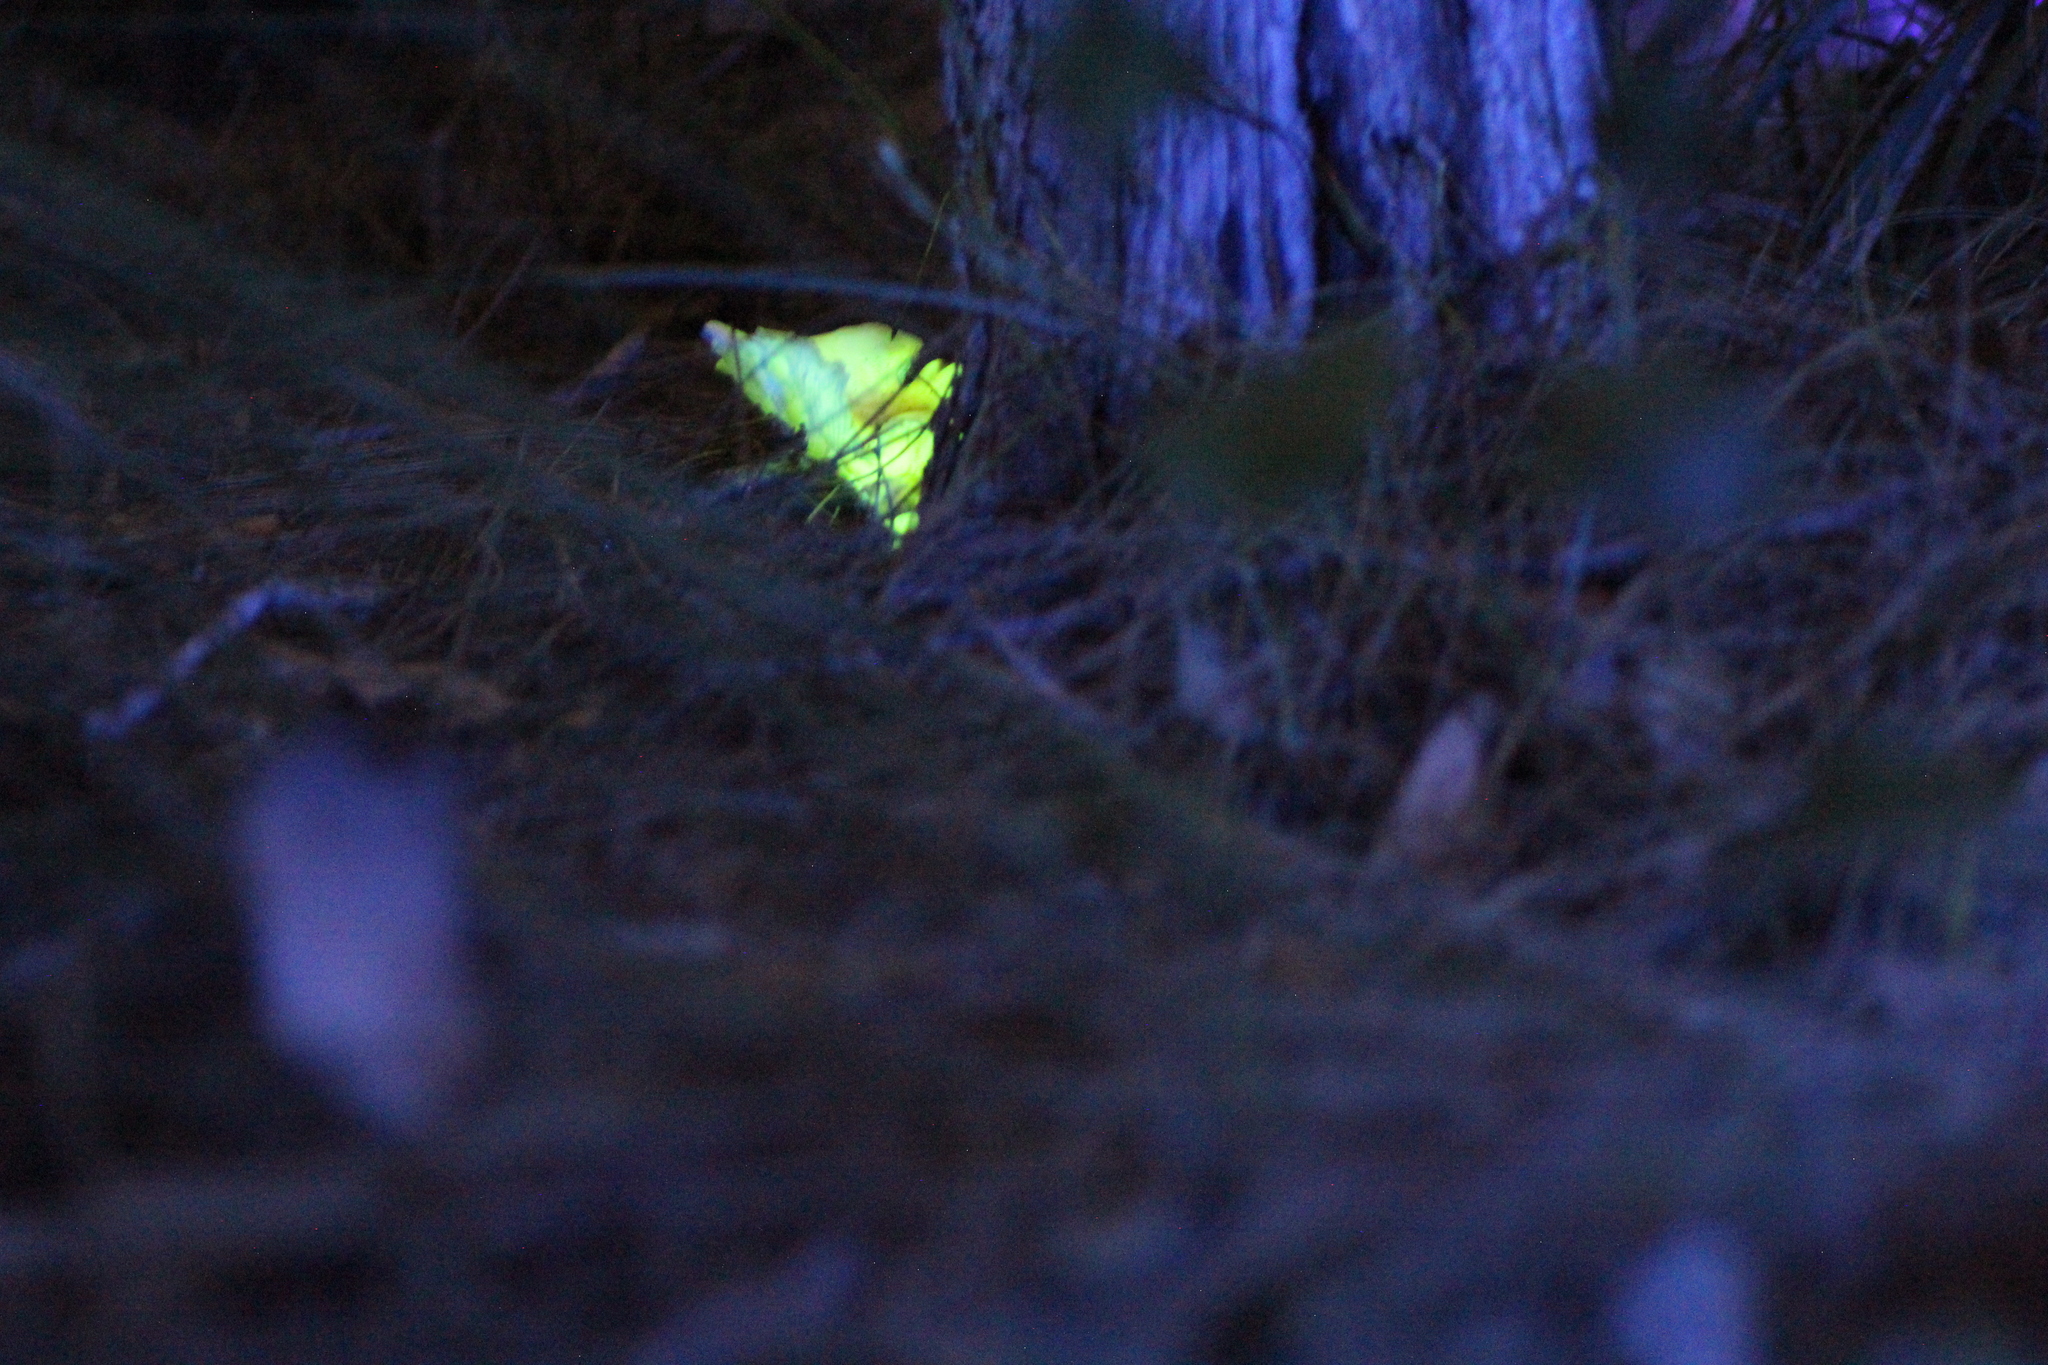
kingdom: Fungi
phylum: Basidiomycota
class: Agaricomycetes
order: Agaricales
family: Omphalotaceae
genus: Omphalotus
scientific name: Omphalotus nidiformis
